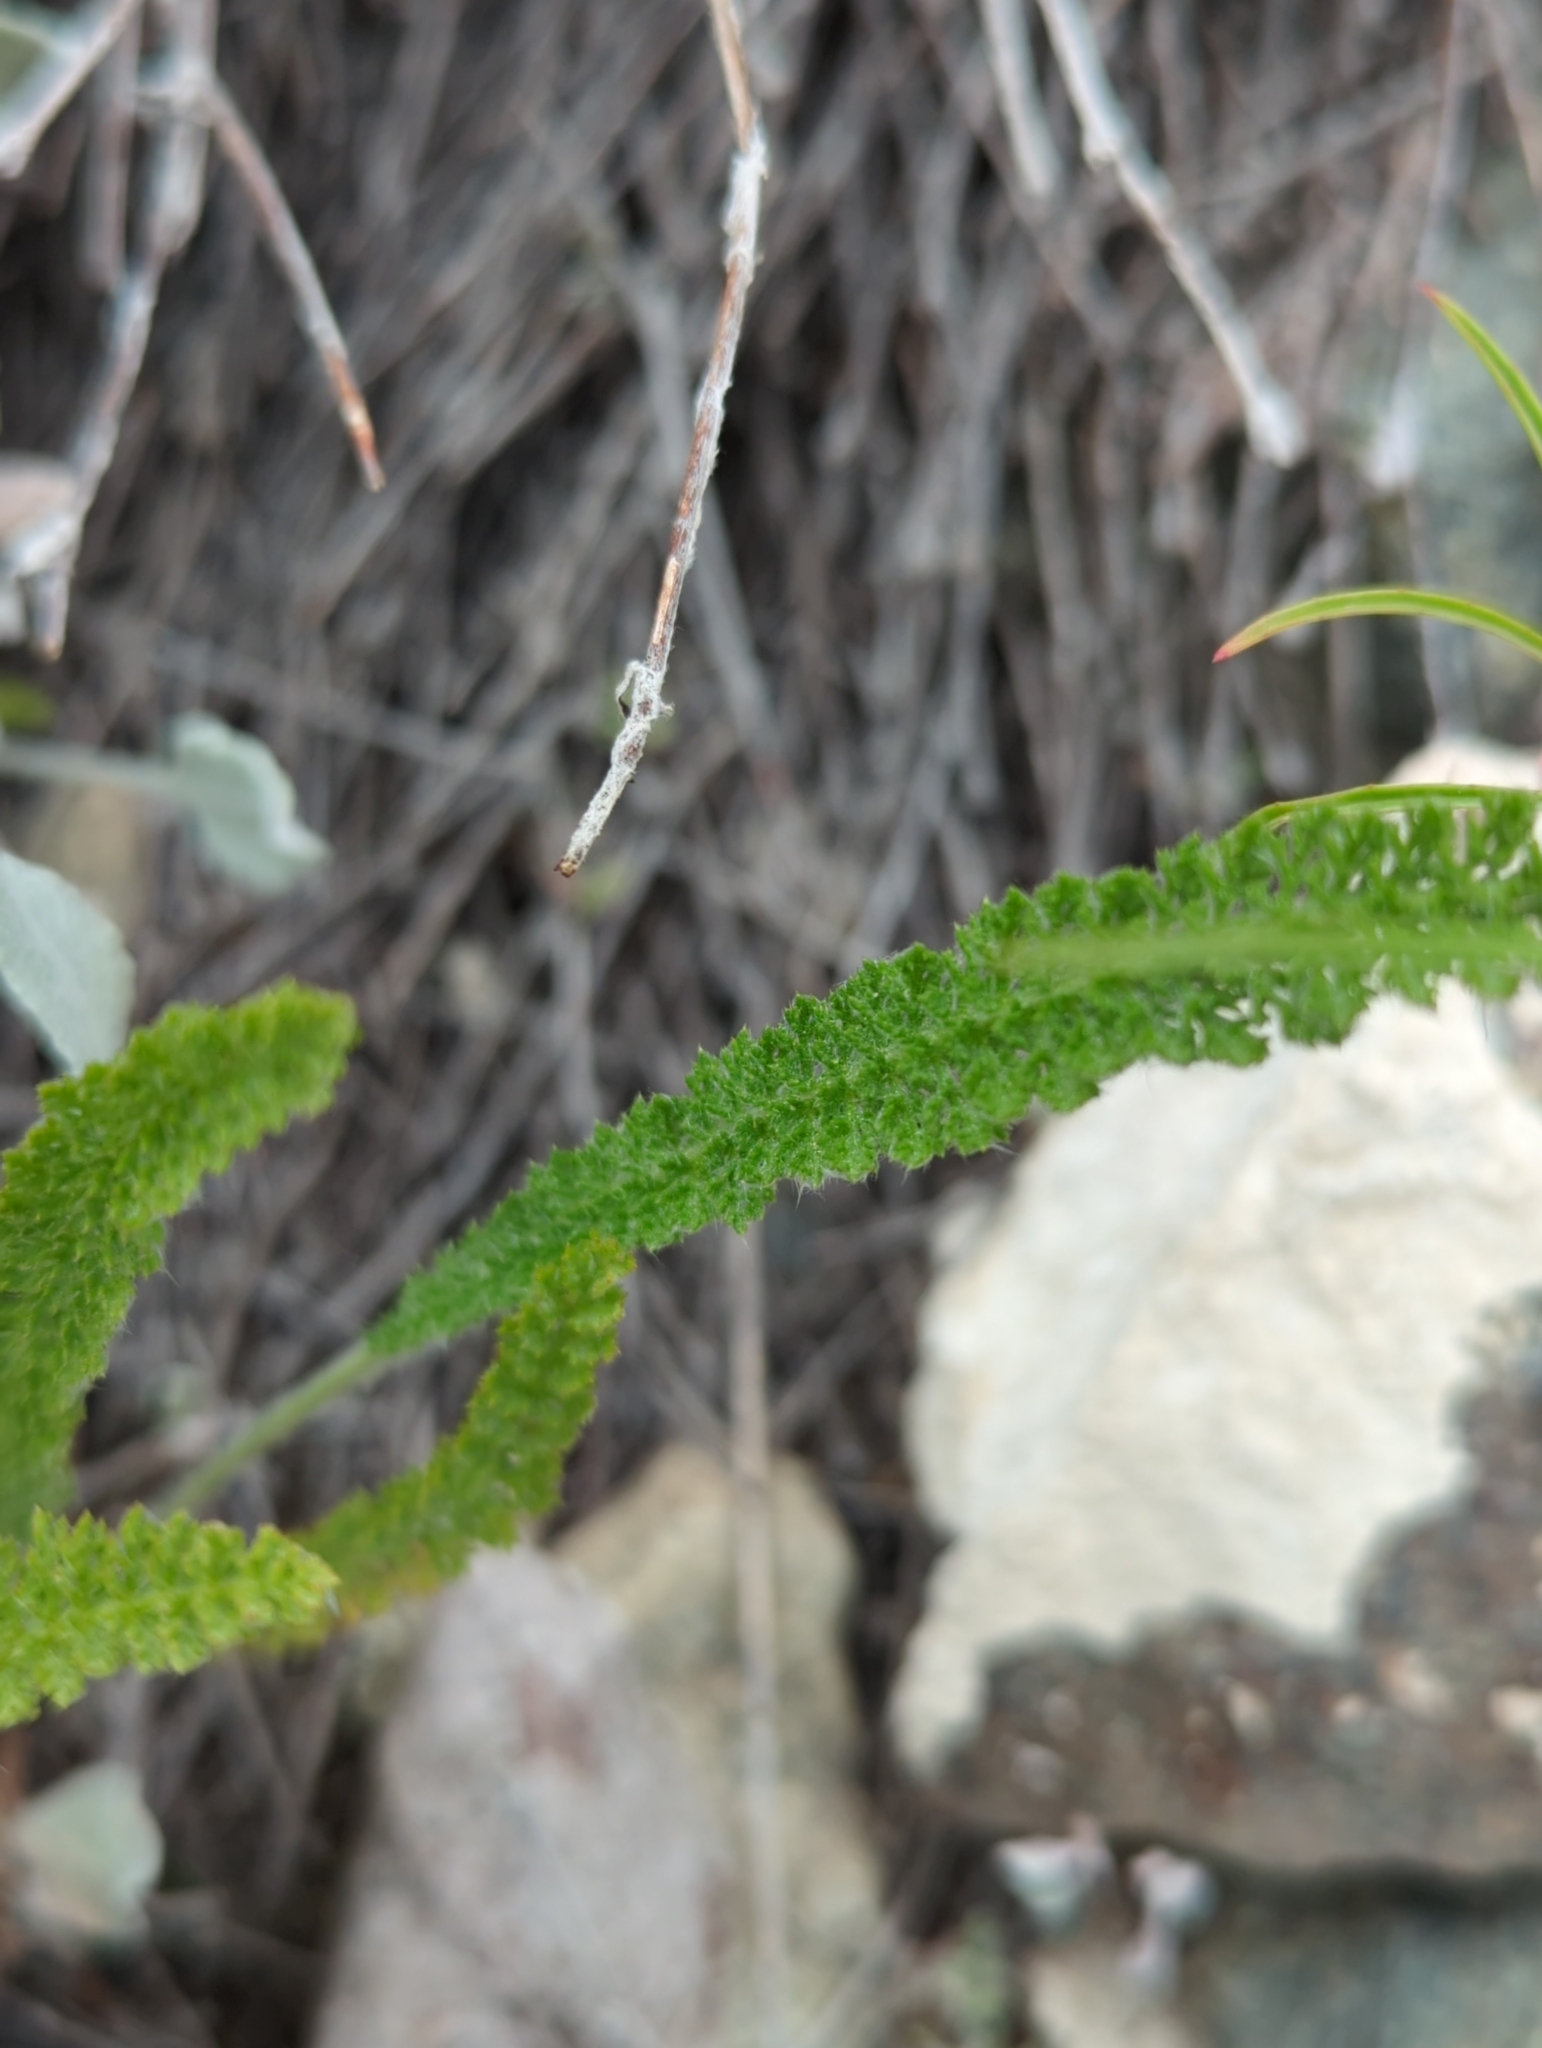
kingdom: Plantae
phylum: Tracheophyta
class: Magnoliopsida
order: Asterales
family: Asteraceae
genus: Achillea
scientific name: Achillea millefolium
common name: Yarrow
